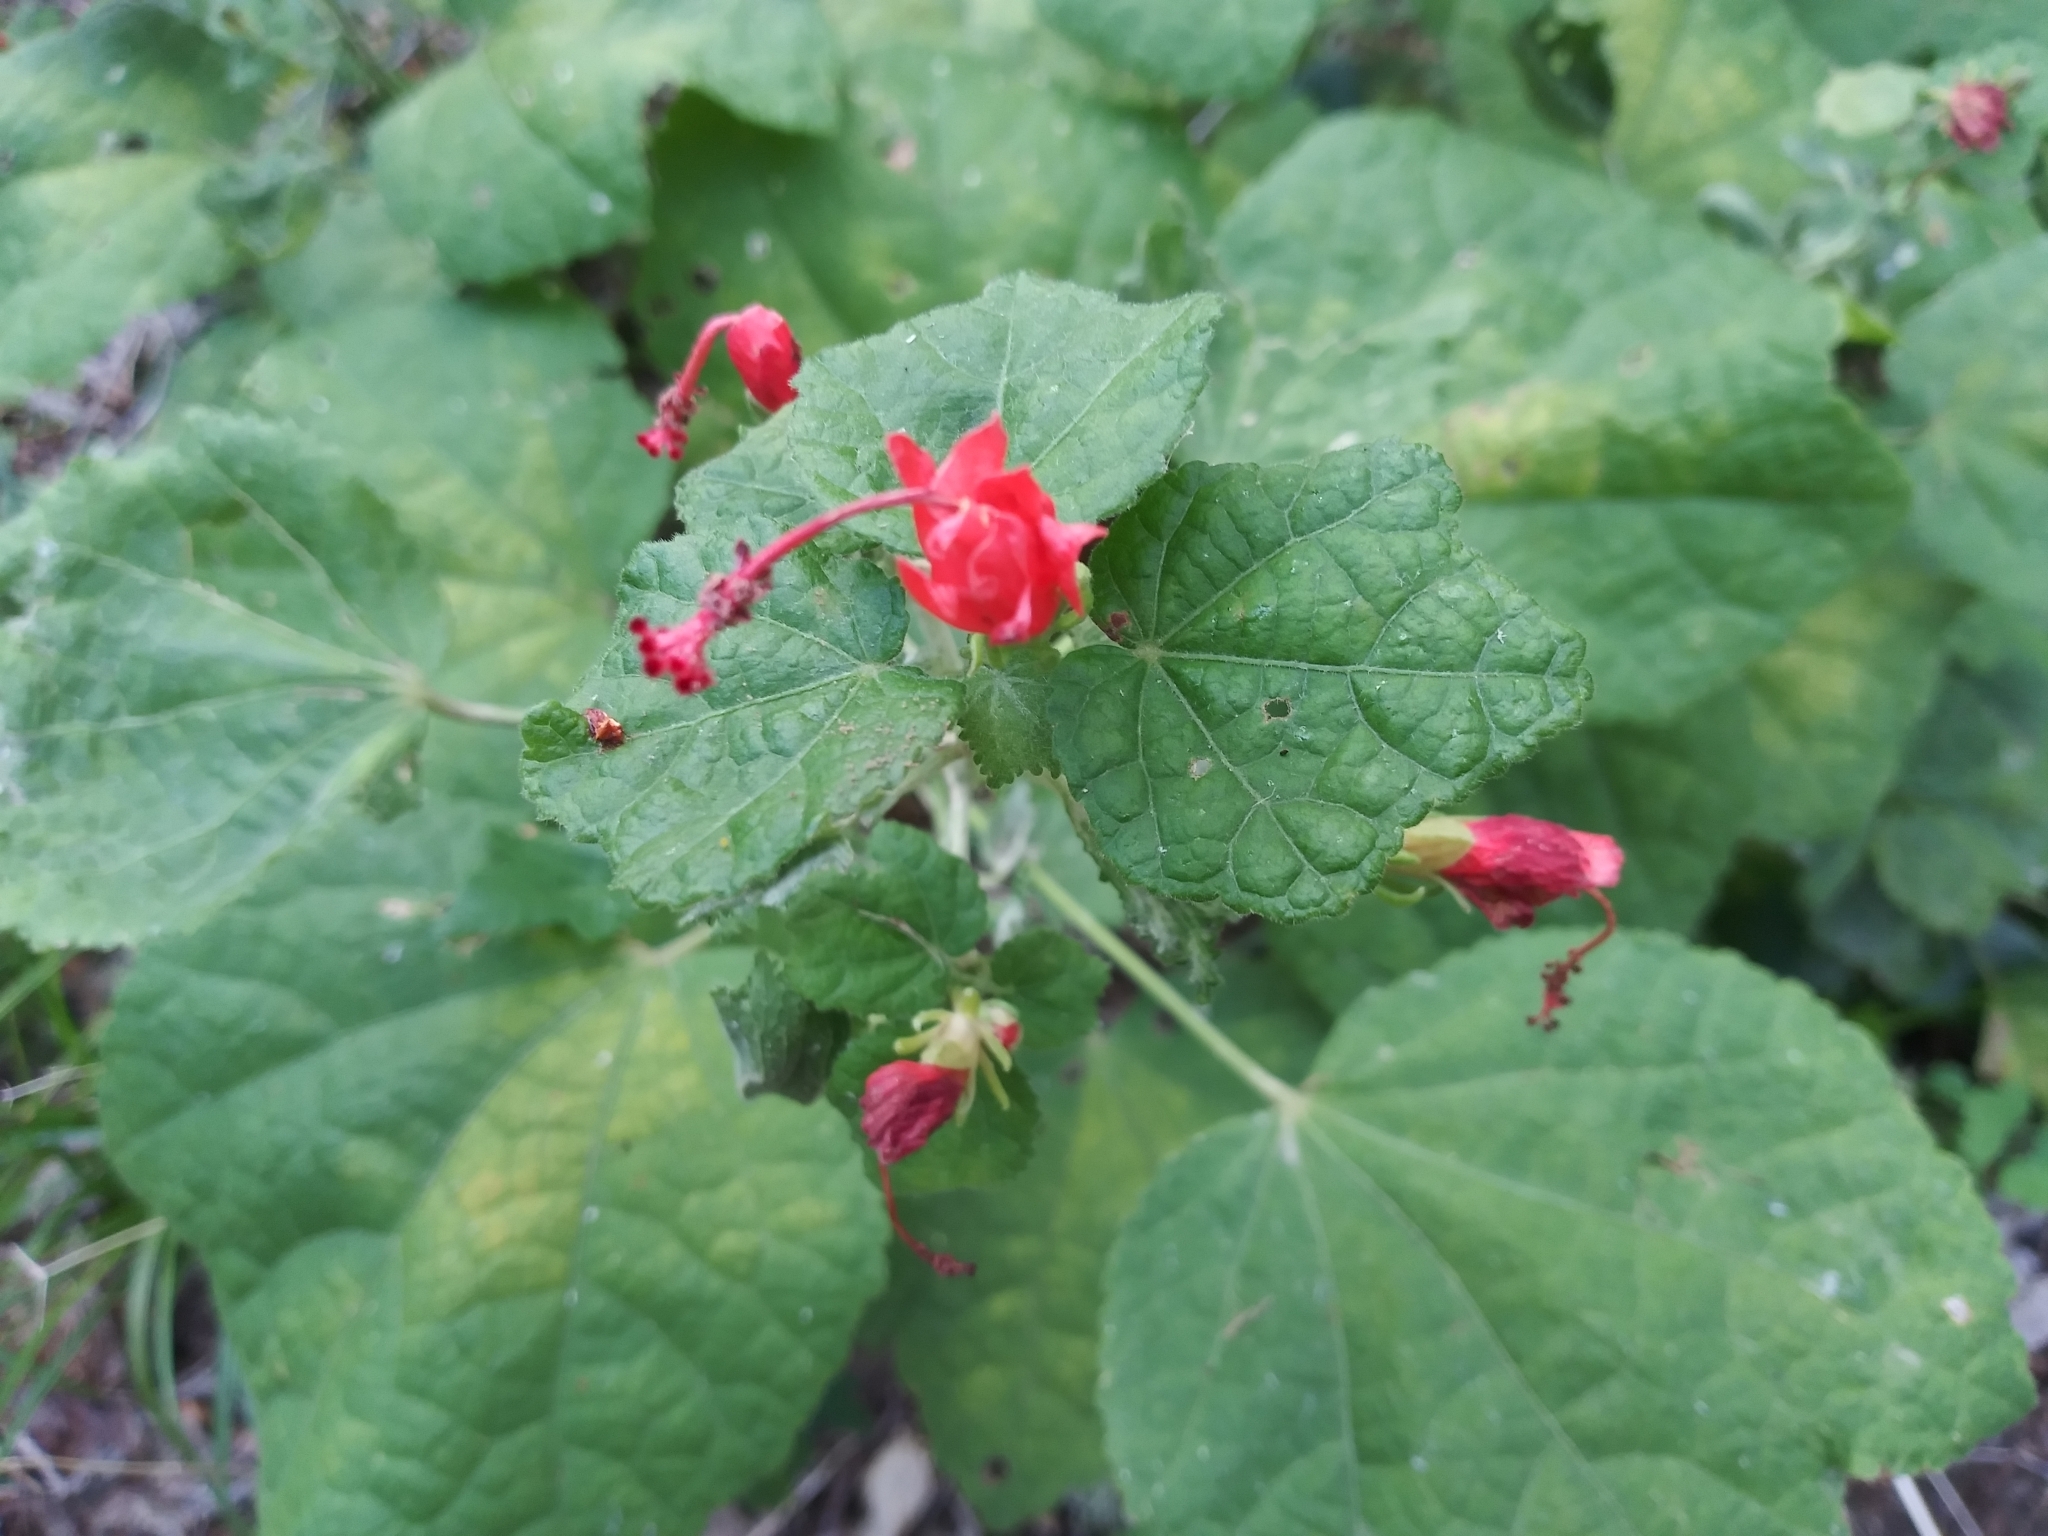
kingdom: Plantae
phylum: Tracheophyta
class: Magnoliopsida
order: Malvales
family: Malvaceae
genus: Malvaviscus
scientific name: Malvaviscus arboreus
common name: Wax mallow
